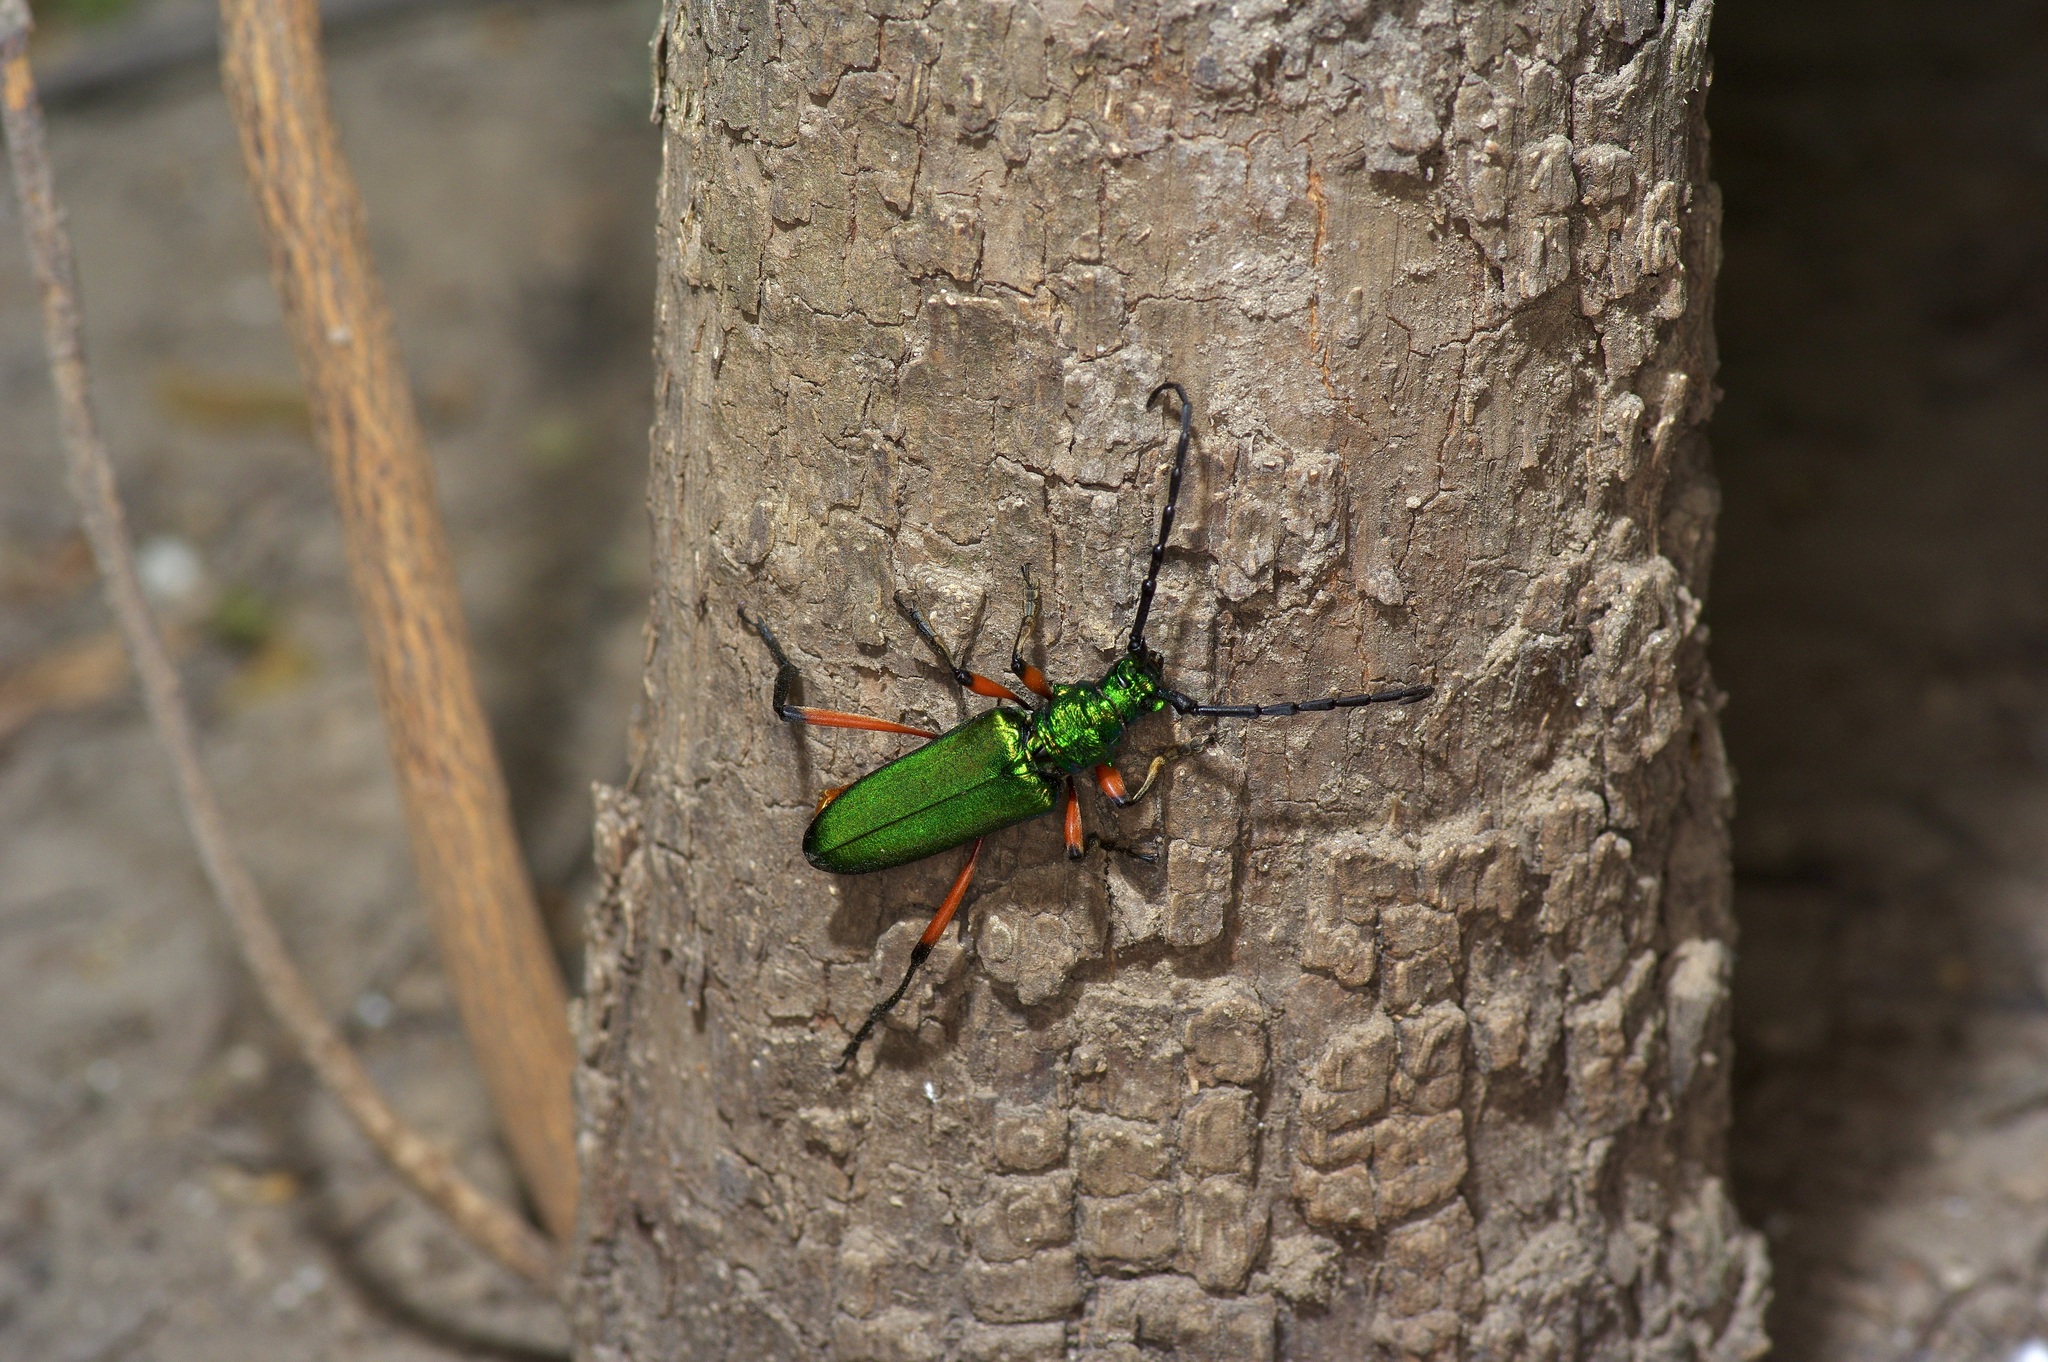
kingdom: Plantae
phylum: Tracheophyta
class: Magnoliopsida
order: Ericales
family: Sapotaceae
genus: Sideroxylon
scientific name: Sideroxylon lanuginosum
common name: Chittamwood
